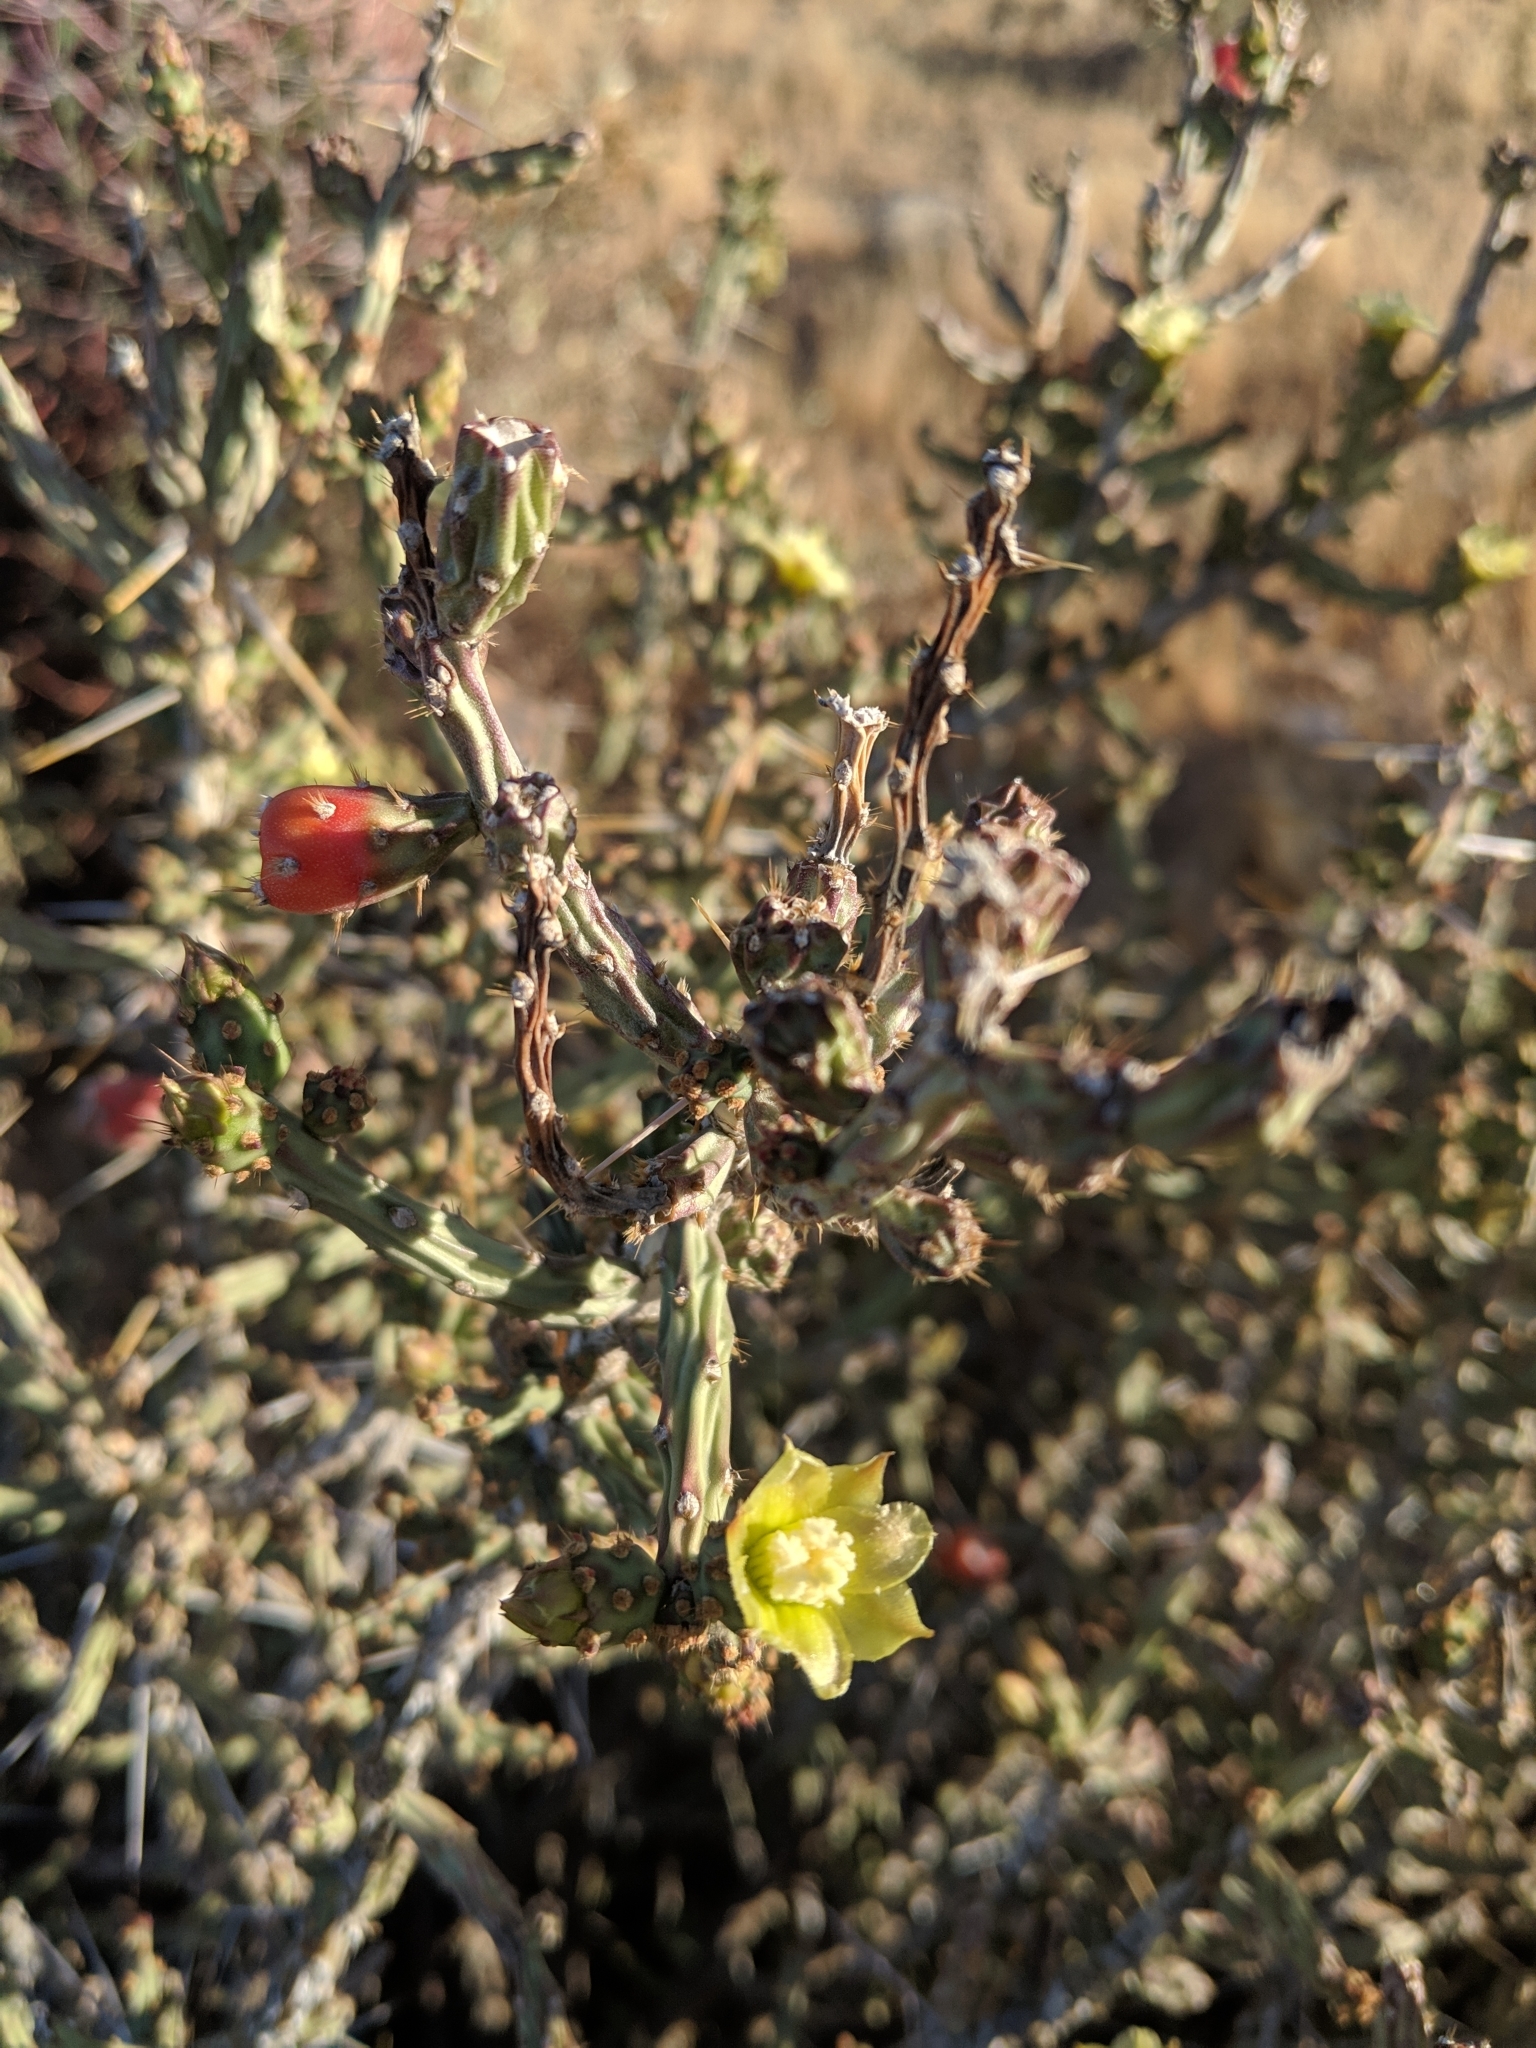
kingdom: Plantae
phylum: Tracheophyta
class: Magnoliopsida
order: Caryophyllales
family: Cactaceae
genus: Cylindropuntia
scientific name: Cylindropuntia leptocaulis
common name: Christmas cactus
